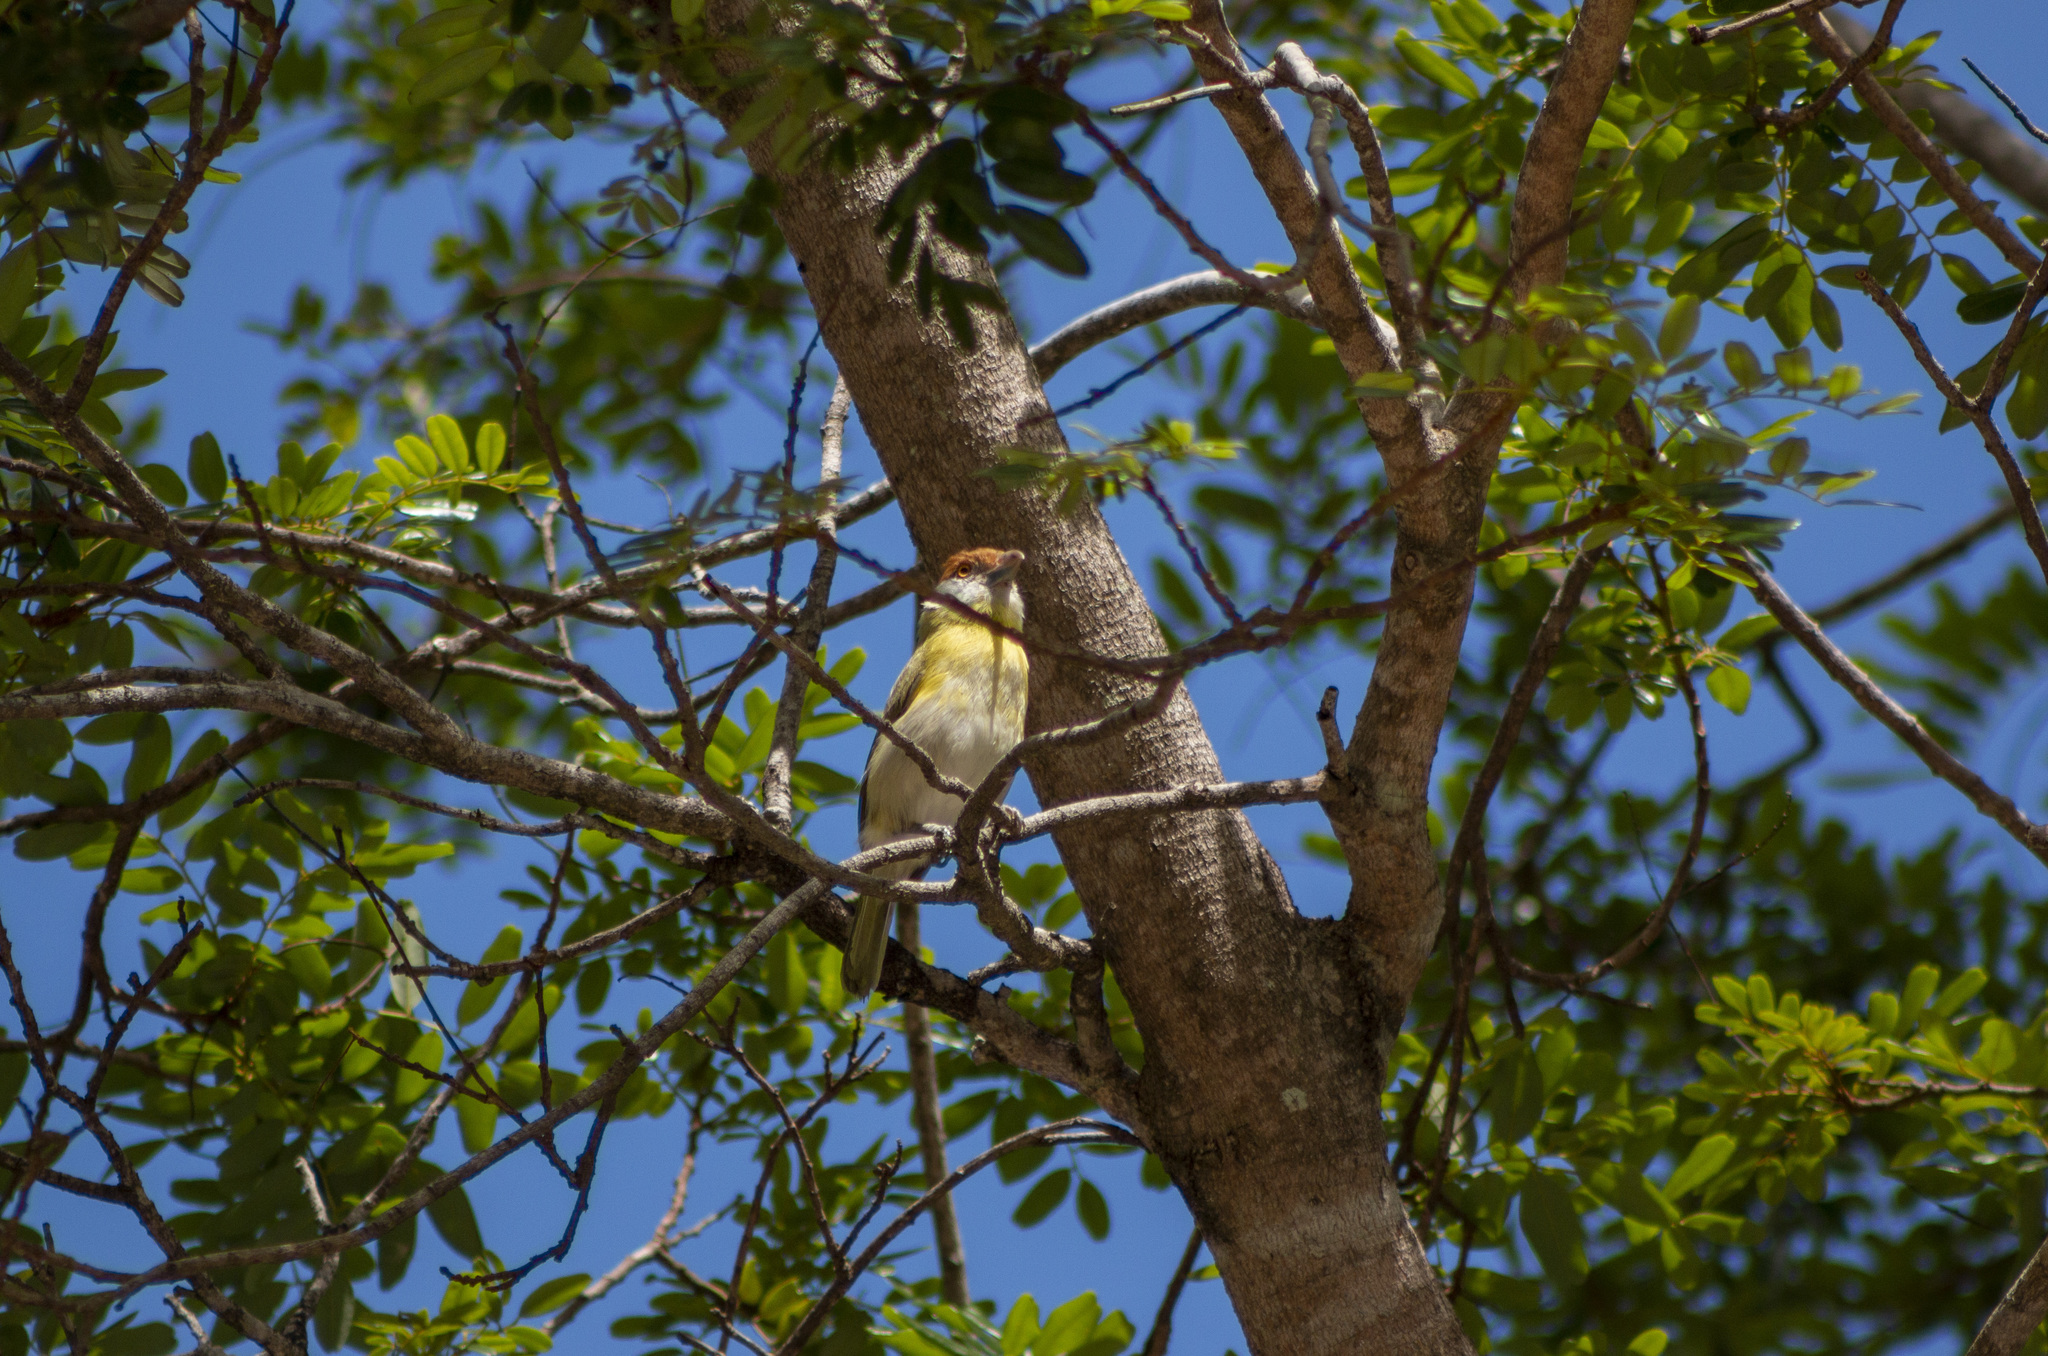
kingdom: Animalia
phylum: Chordata
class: Aves
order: Passeriformes
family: Vireonidae
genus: Cyclarhis
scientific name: Cyclarhis gujanensis
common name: Rufous-browed peppershrike
